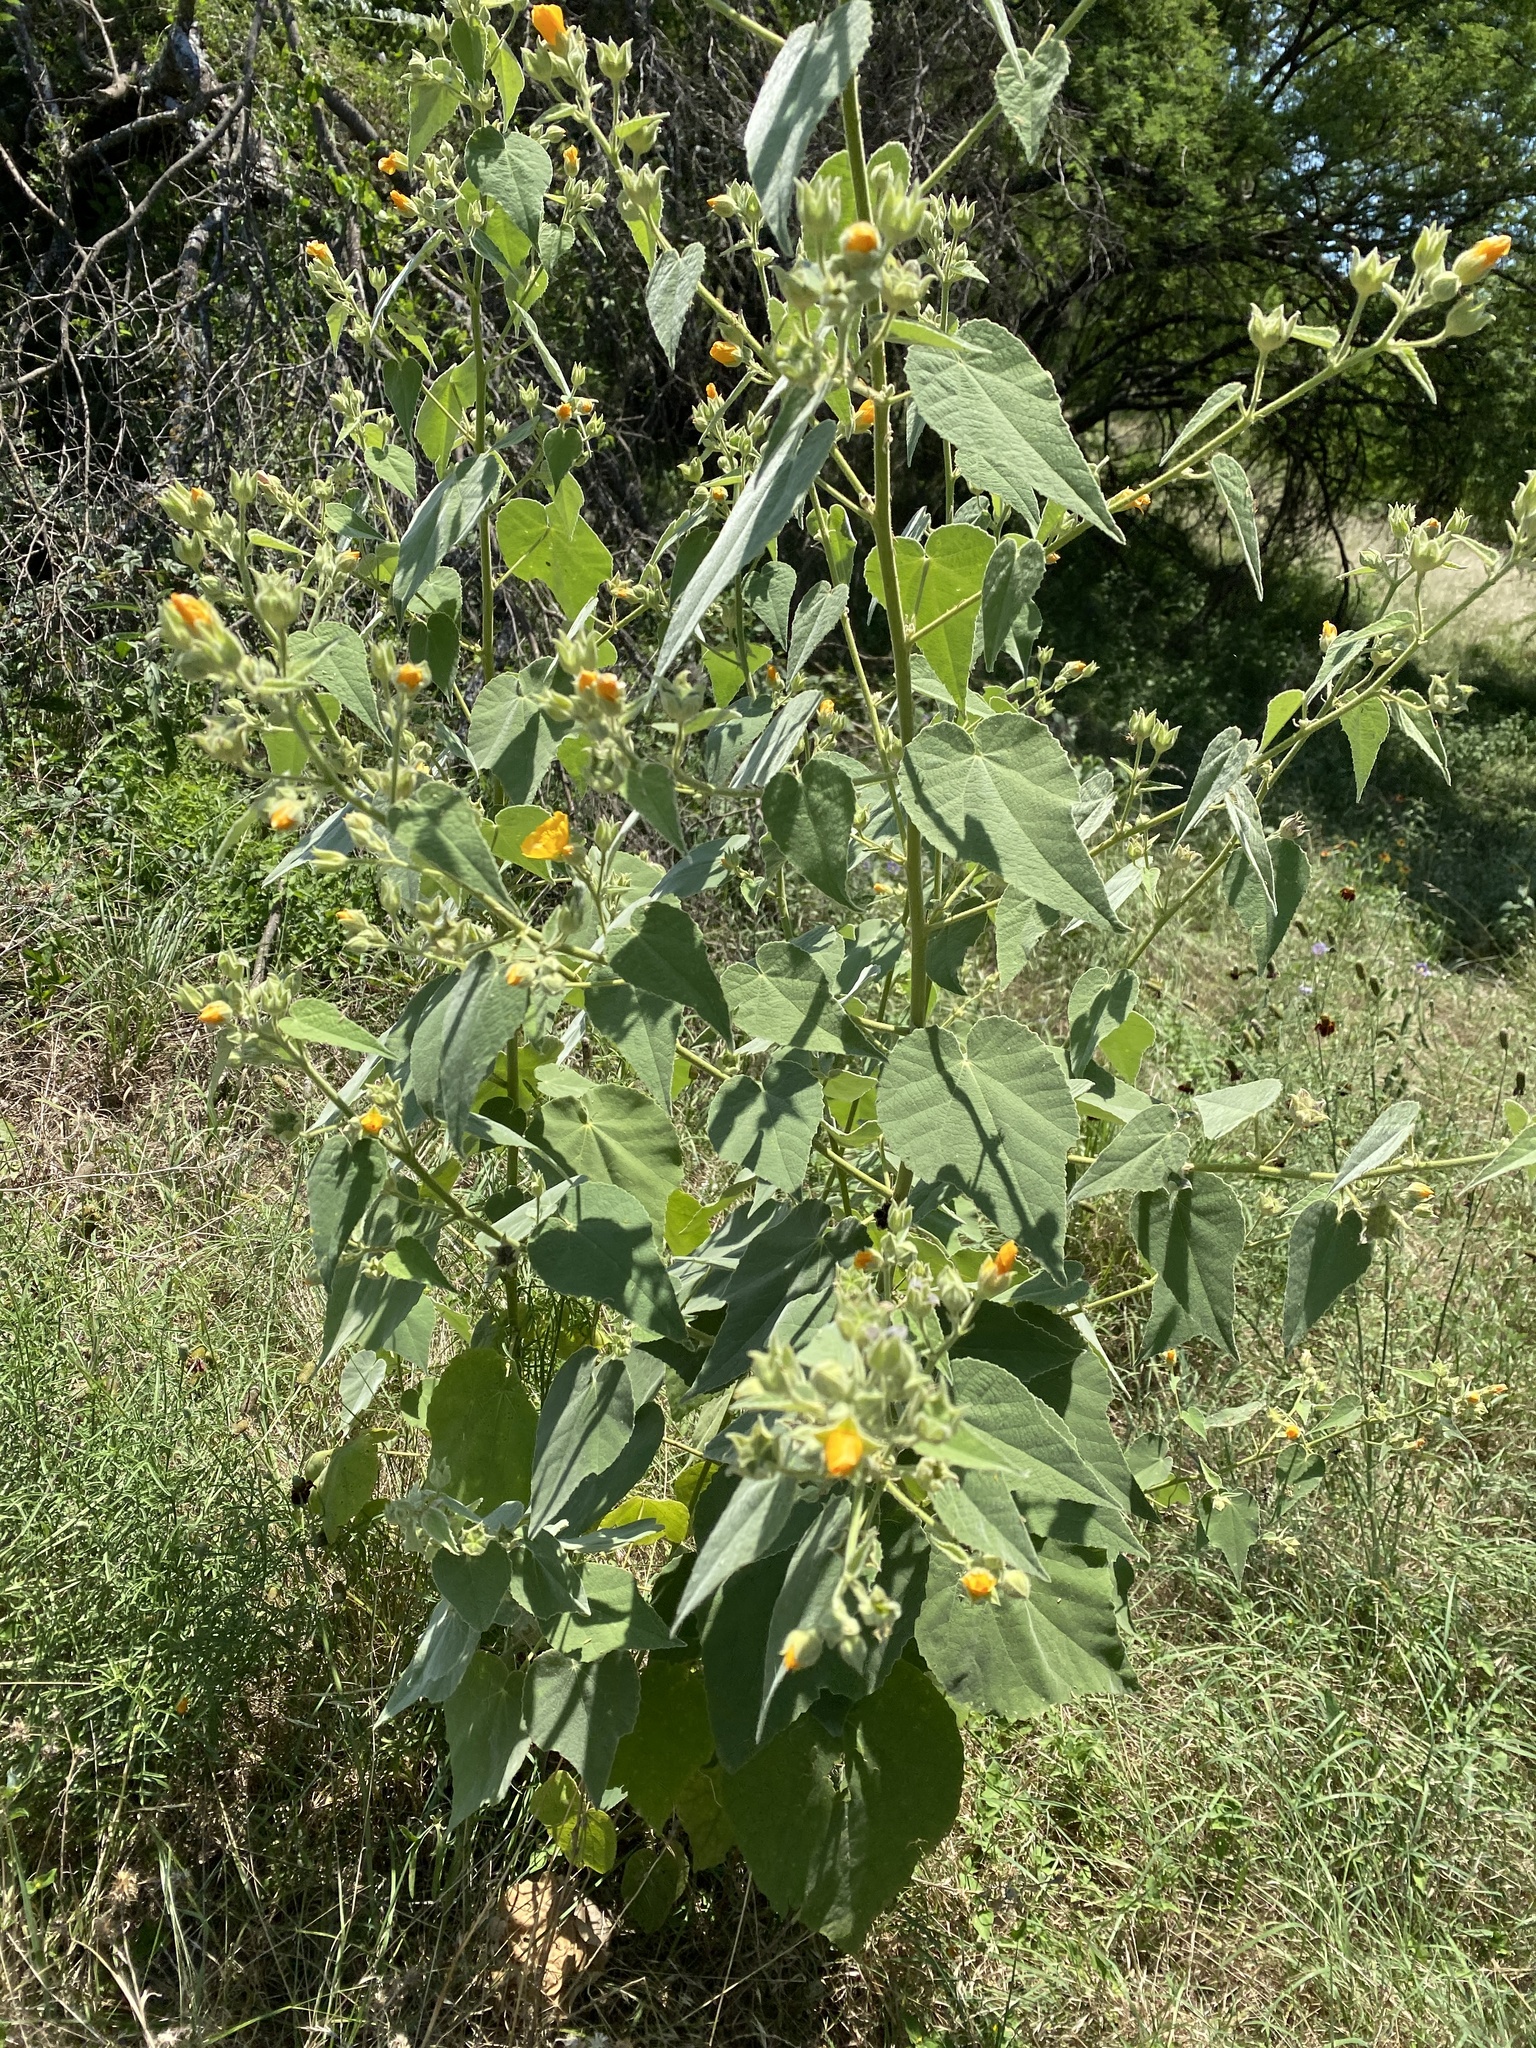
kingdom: Plantae
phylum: Tracheophyta
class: Magnoliopsida
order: Malvales
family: Malvaceae
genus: Allowissadula
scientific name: Allowissadula holosericea
